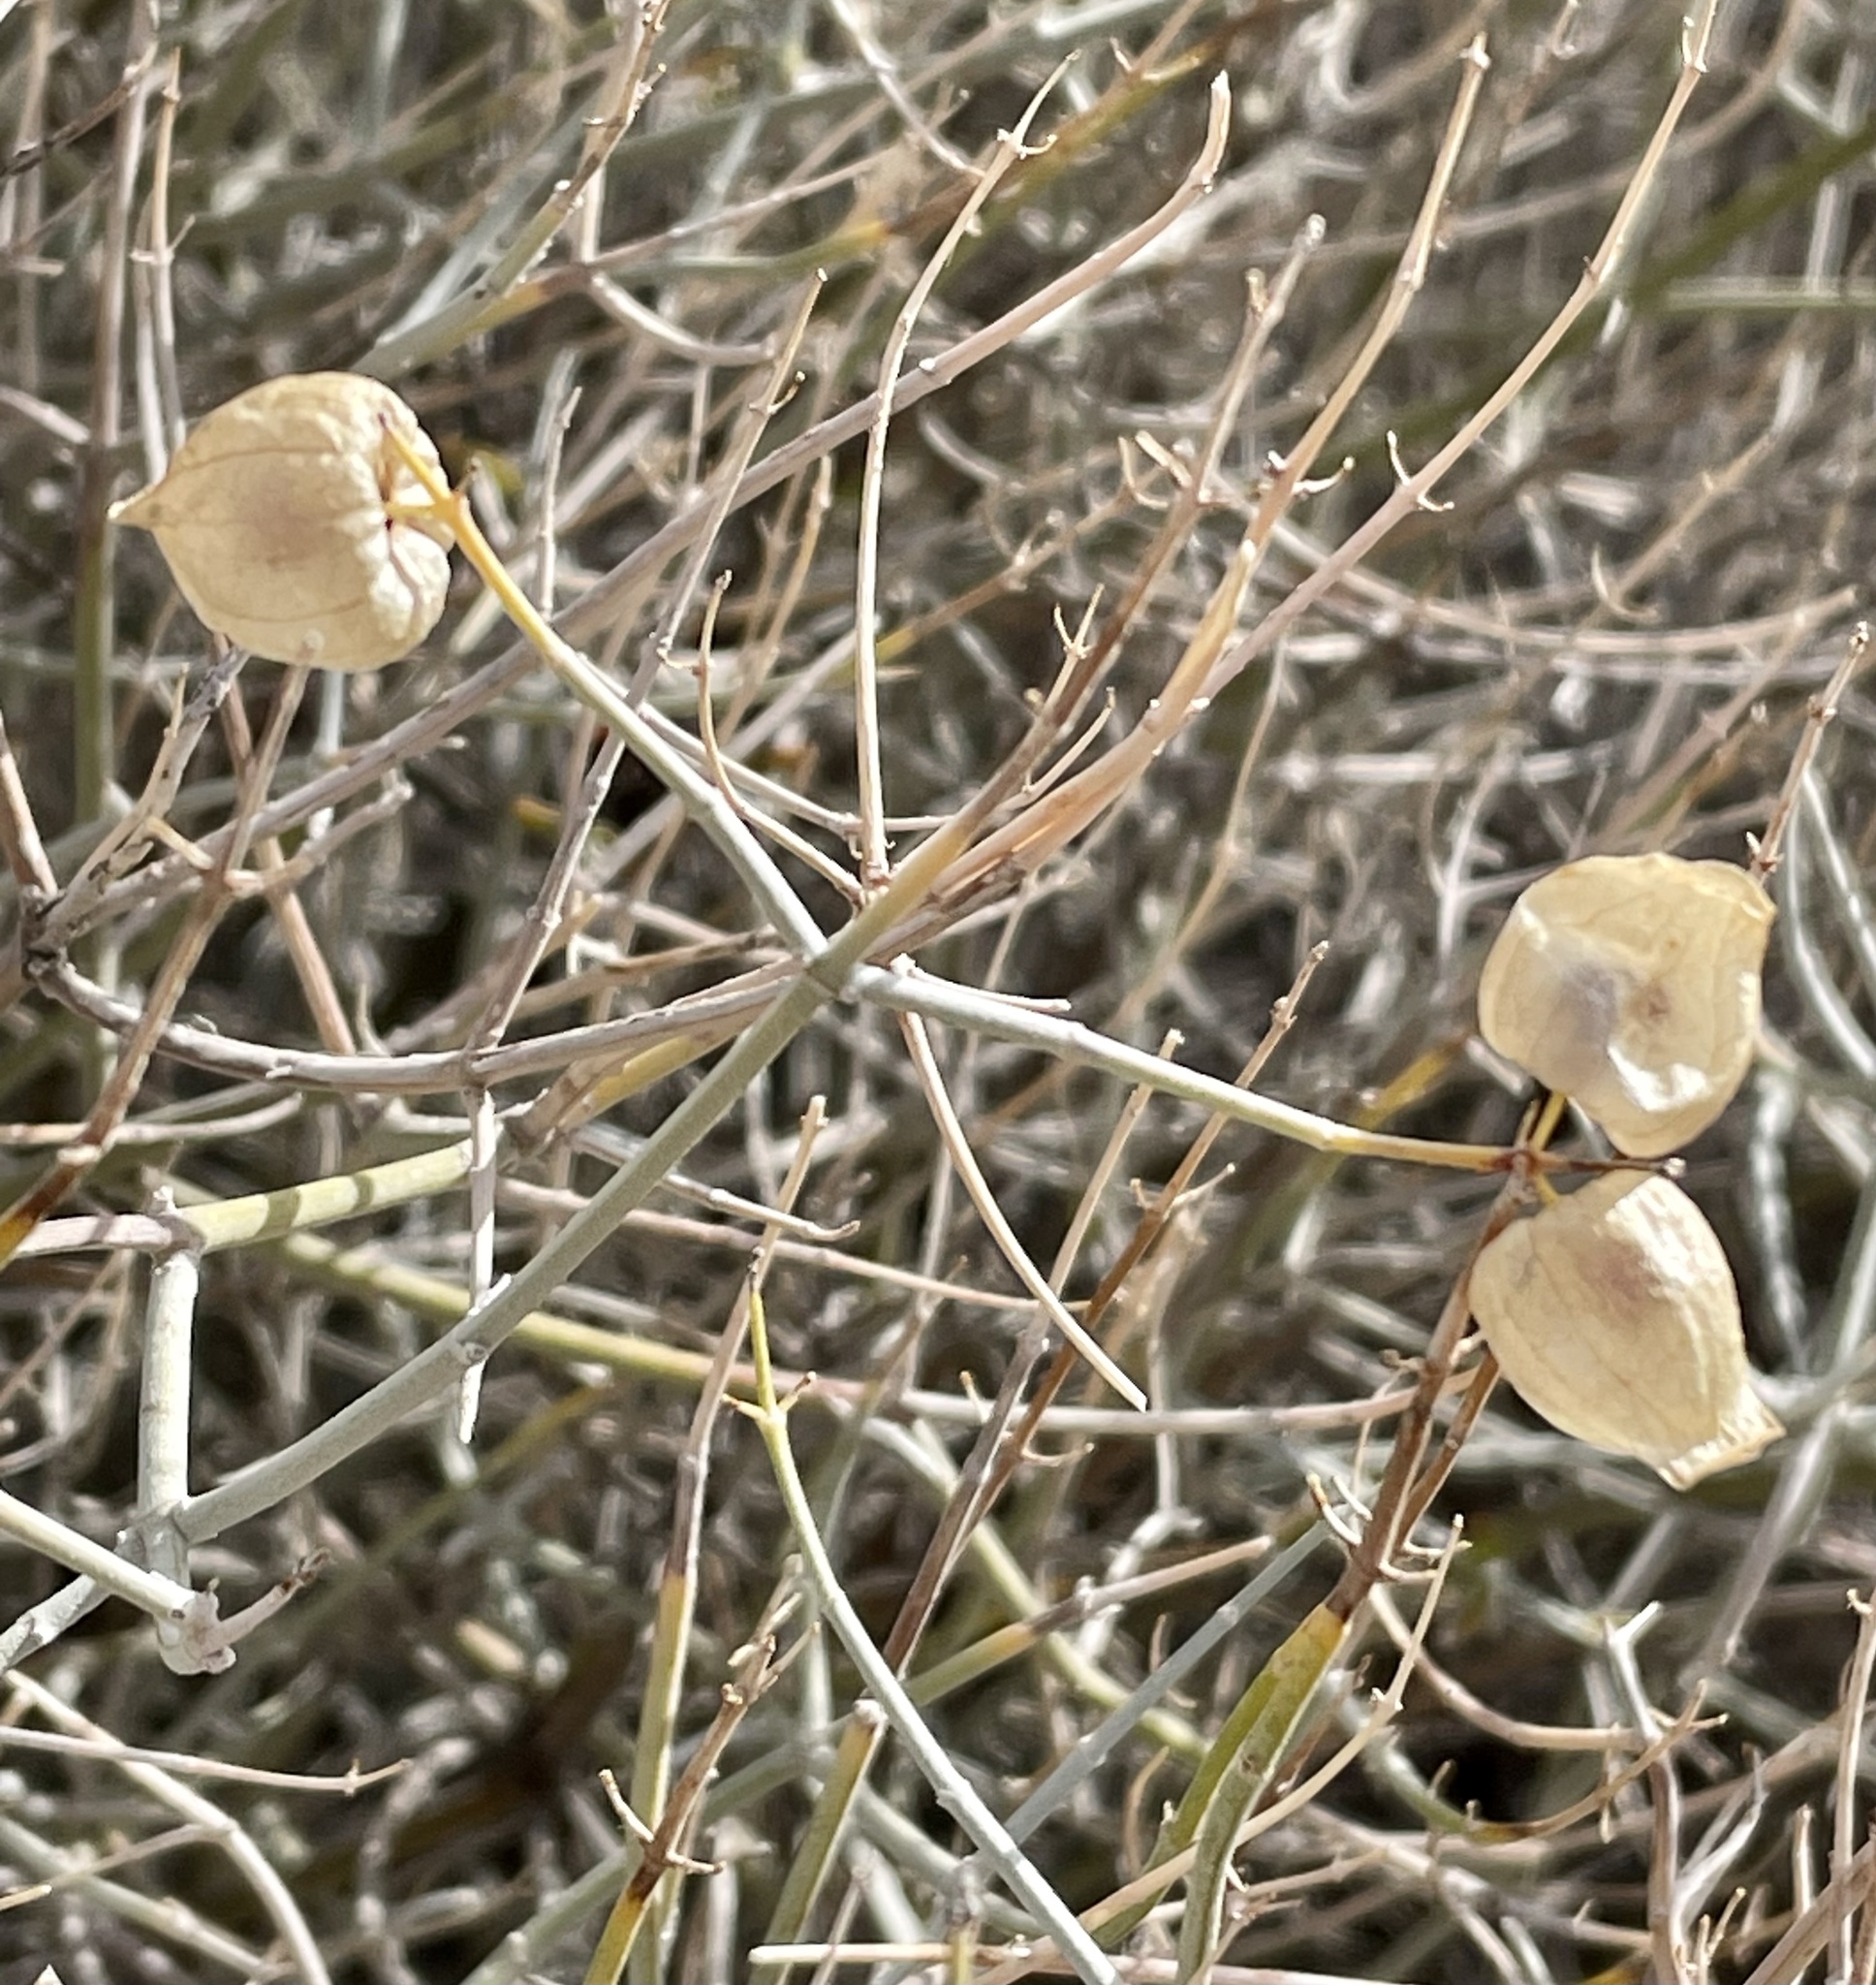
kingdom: Plantae
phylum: Tracheophyta
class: Magnoliopsida
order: Lamiales
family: Lamiaceae
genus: Scutellaria
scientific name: Scutellaria mexicana
